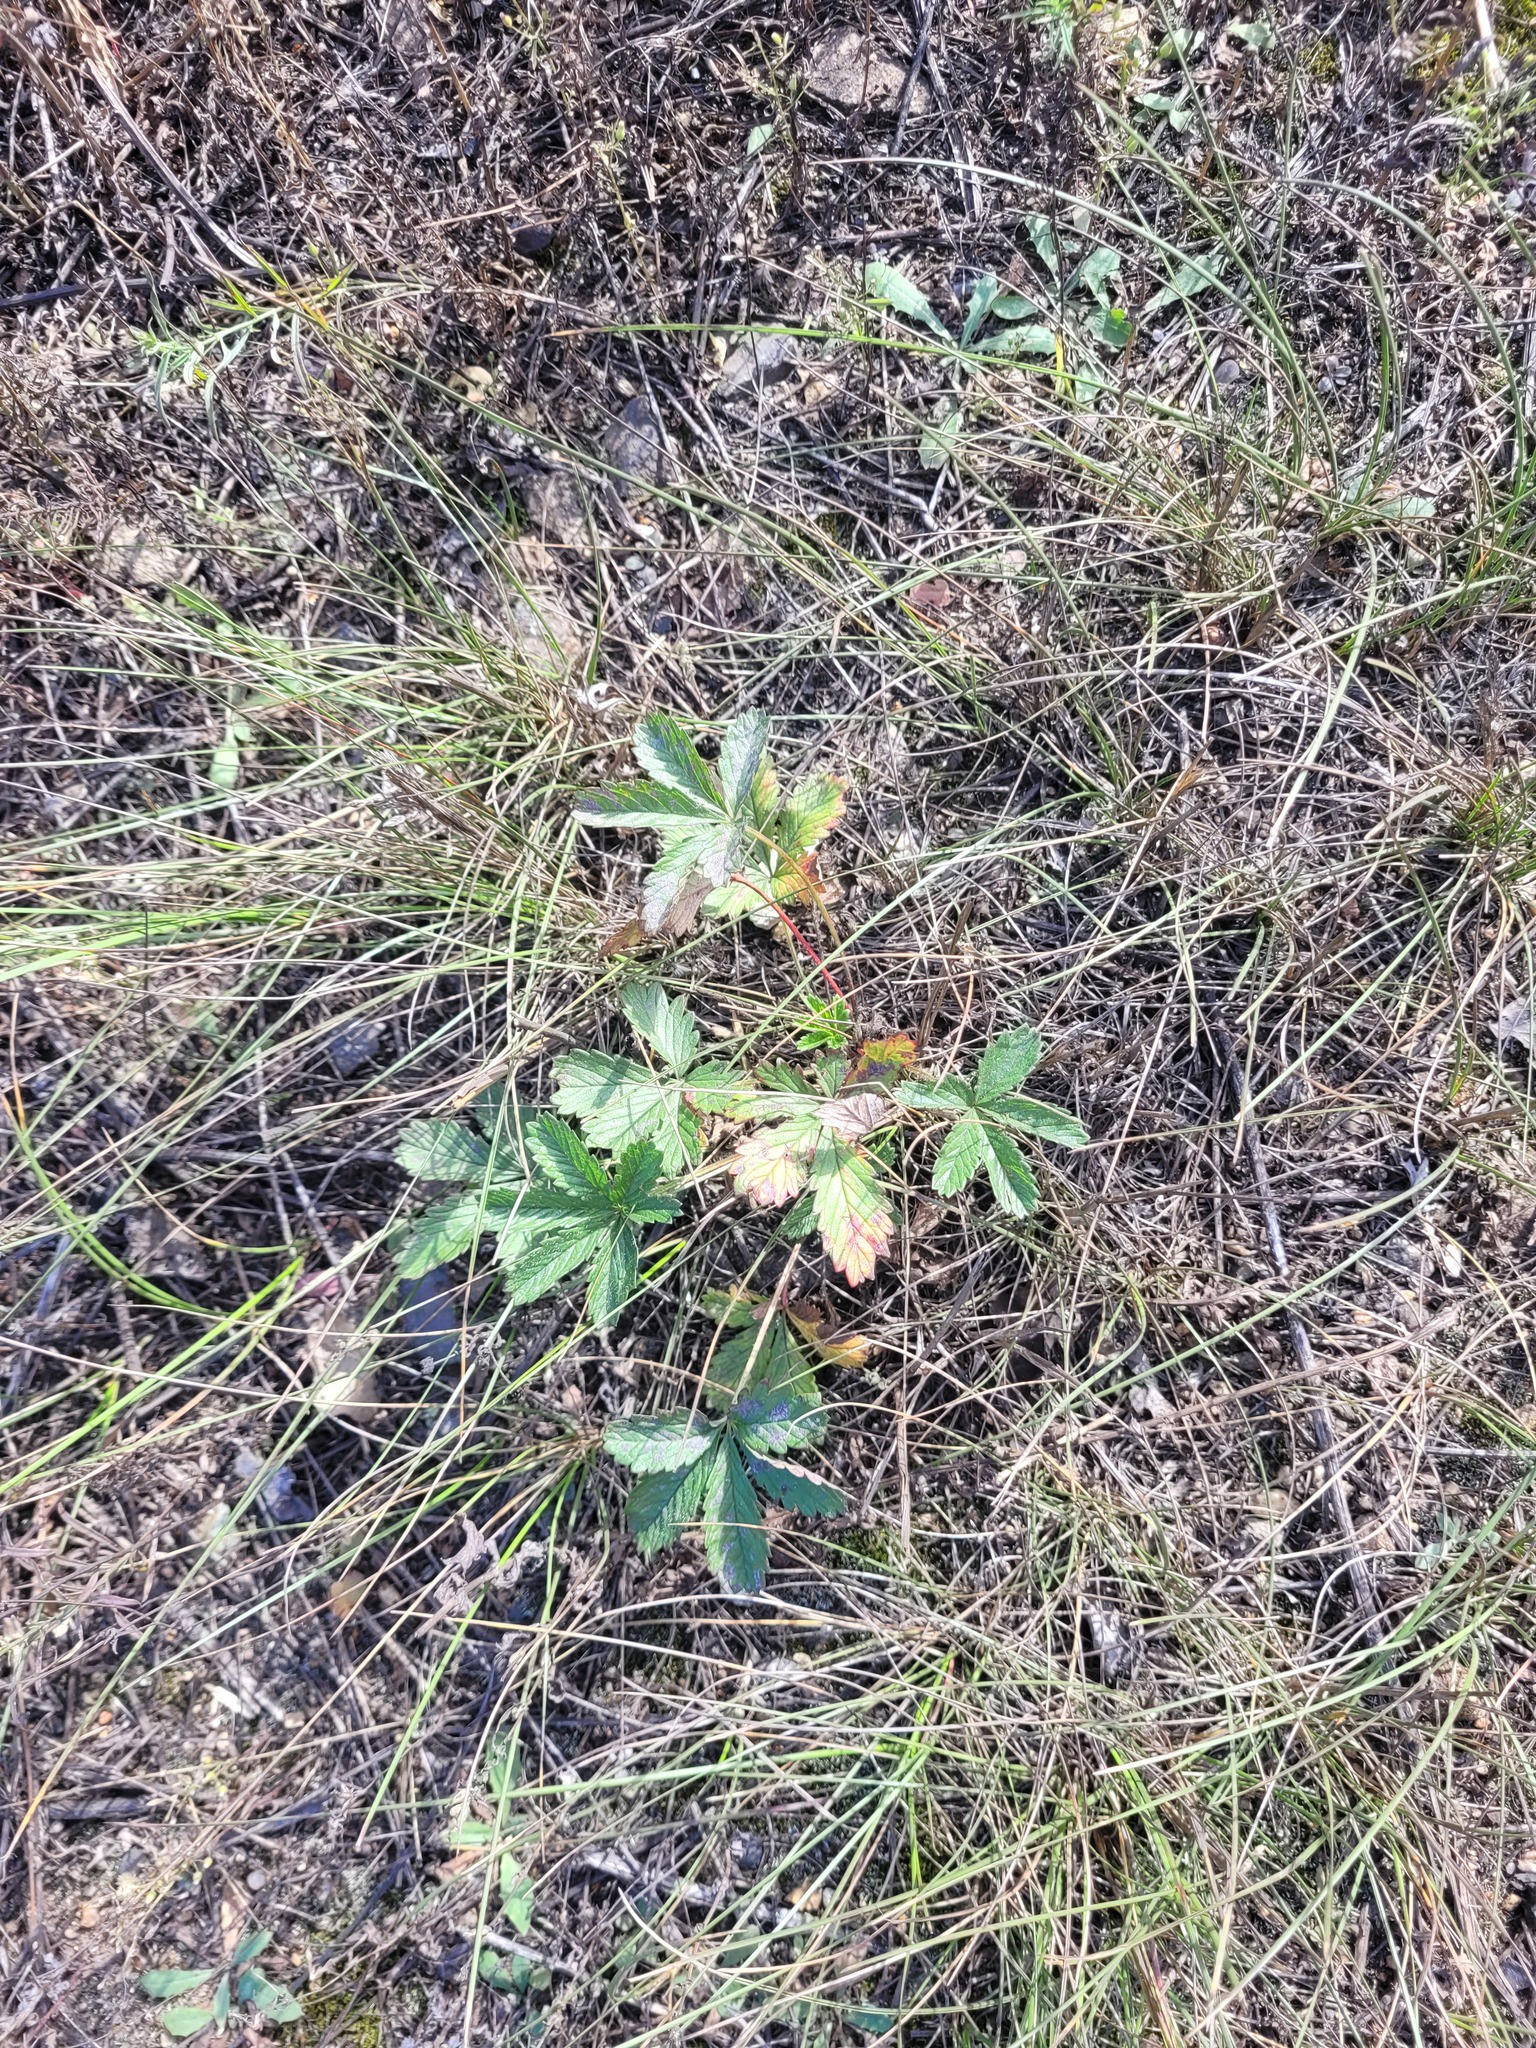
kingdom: Plantae
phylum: Tracheophyta
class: Magnoliopsida
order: Rosales
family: Rosaceae
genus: Potentilla
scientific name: Potentilla thuringiaca
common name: European cinquefoil
